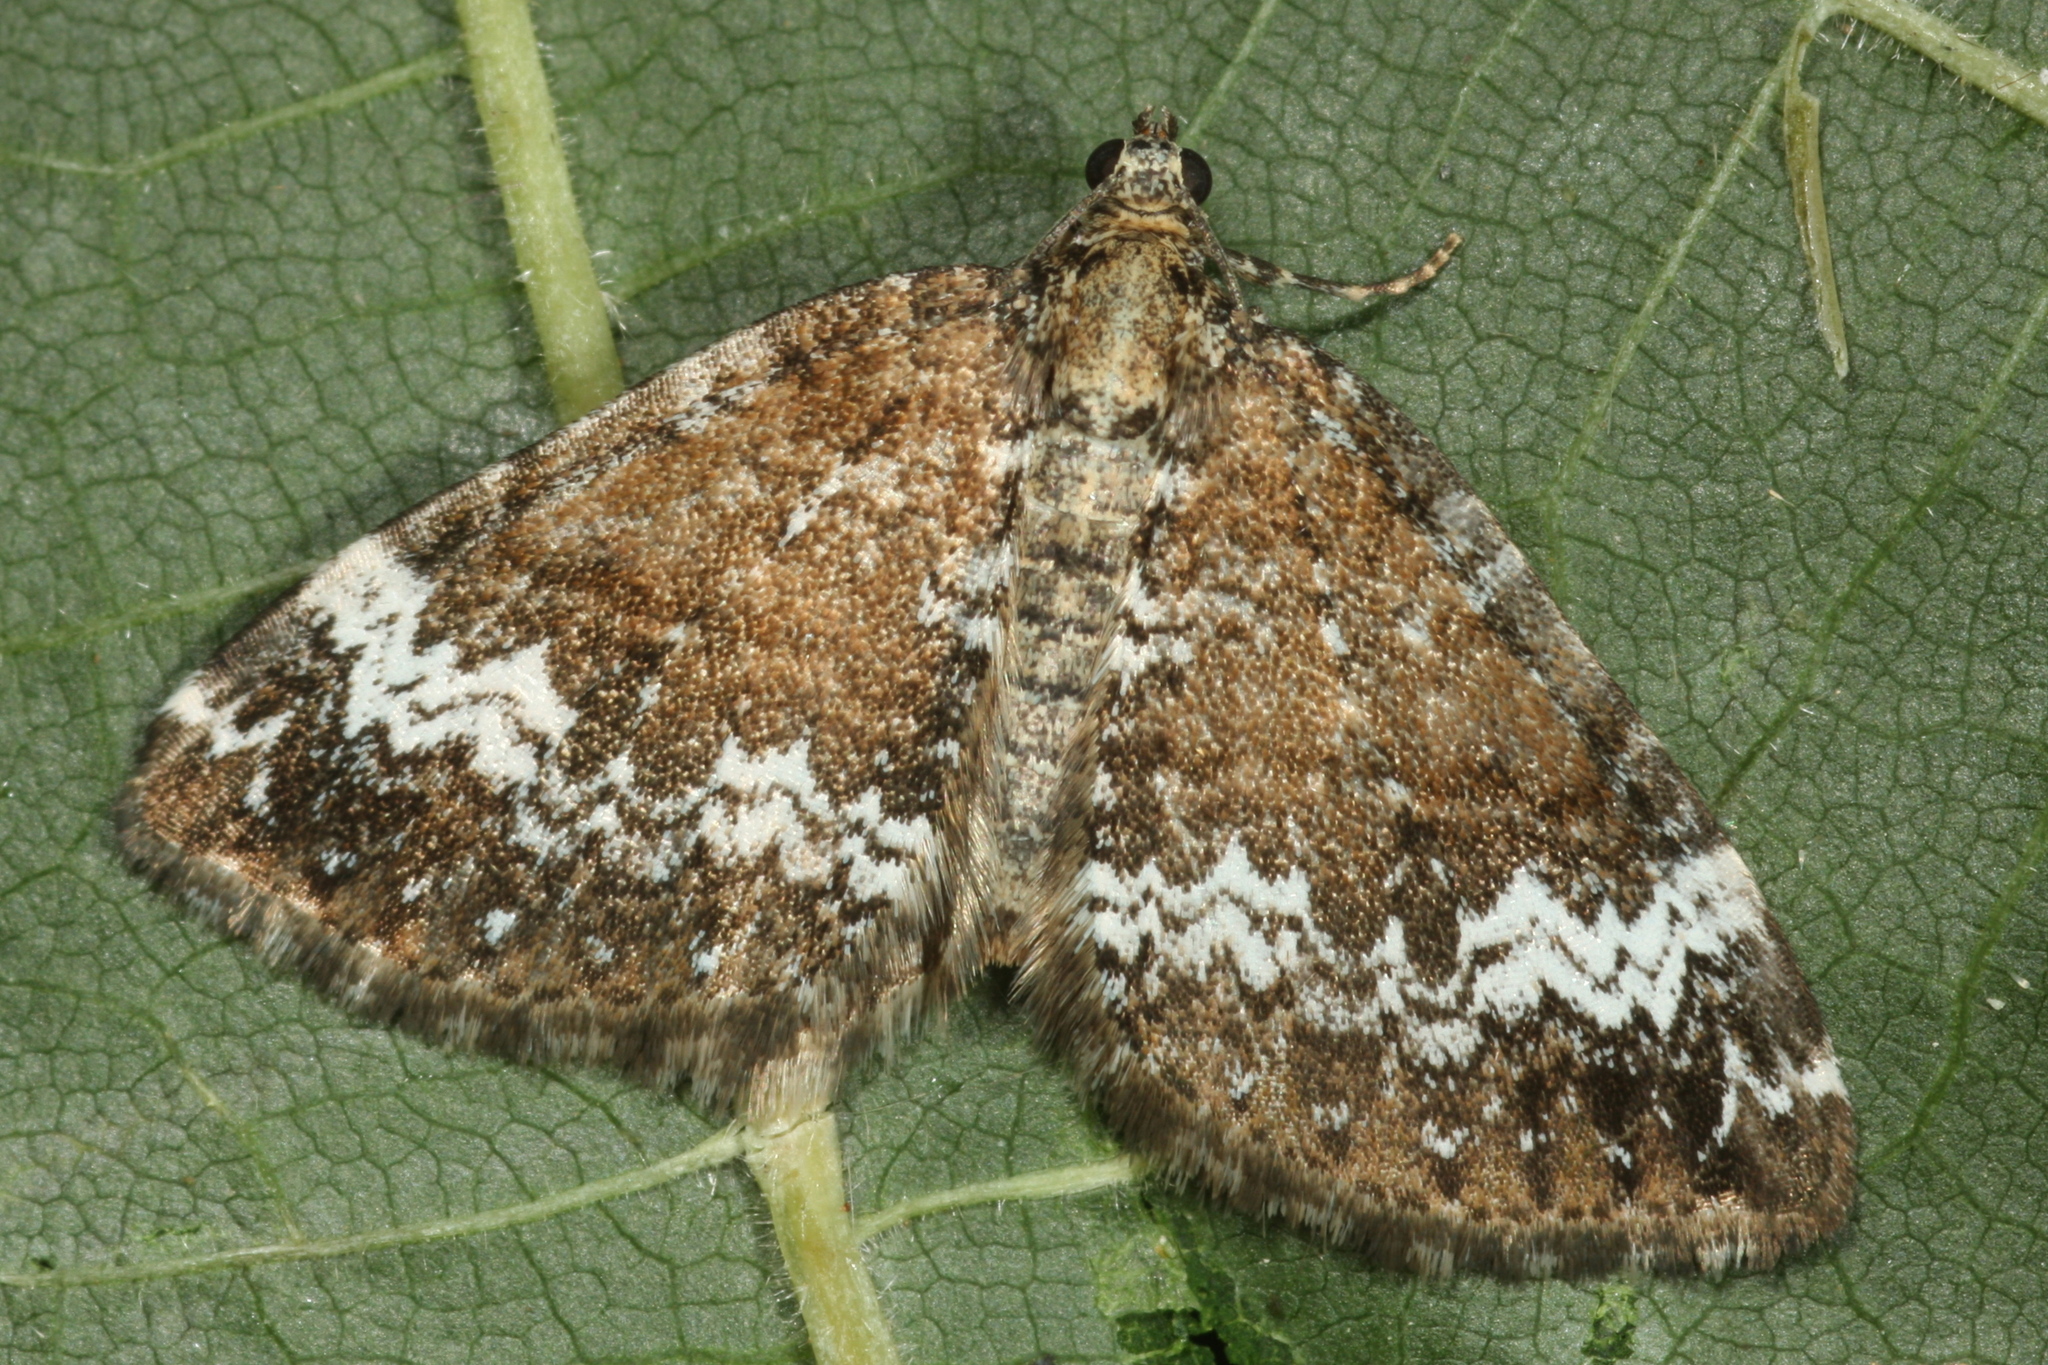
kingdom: Animalia
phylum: Arthropoda
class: Insecta
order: Lepidoptera
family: Geometridae
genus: Perizoma
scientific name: Perizoma alchemillata
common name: Small rivulet
